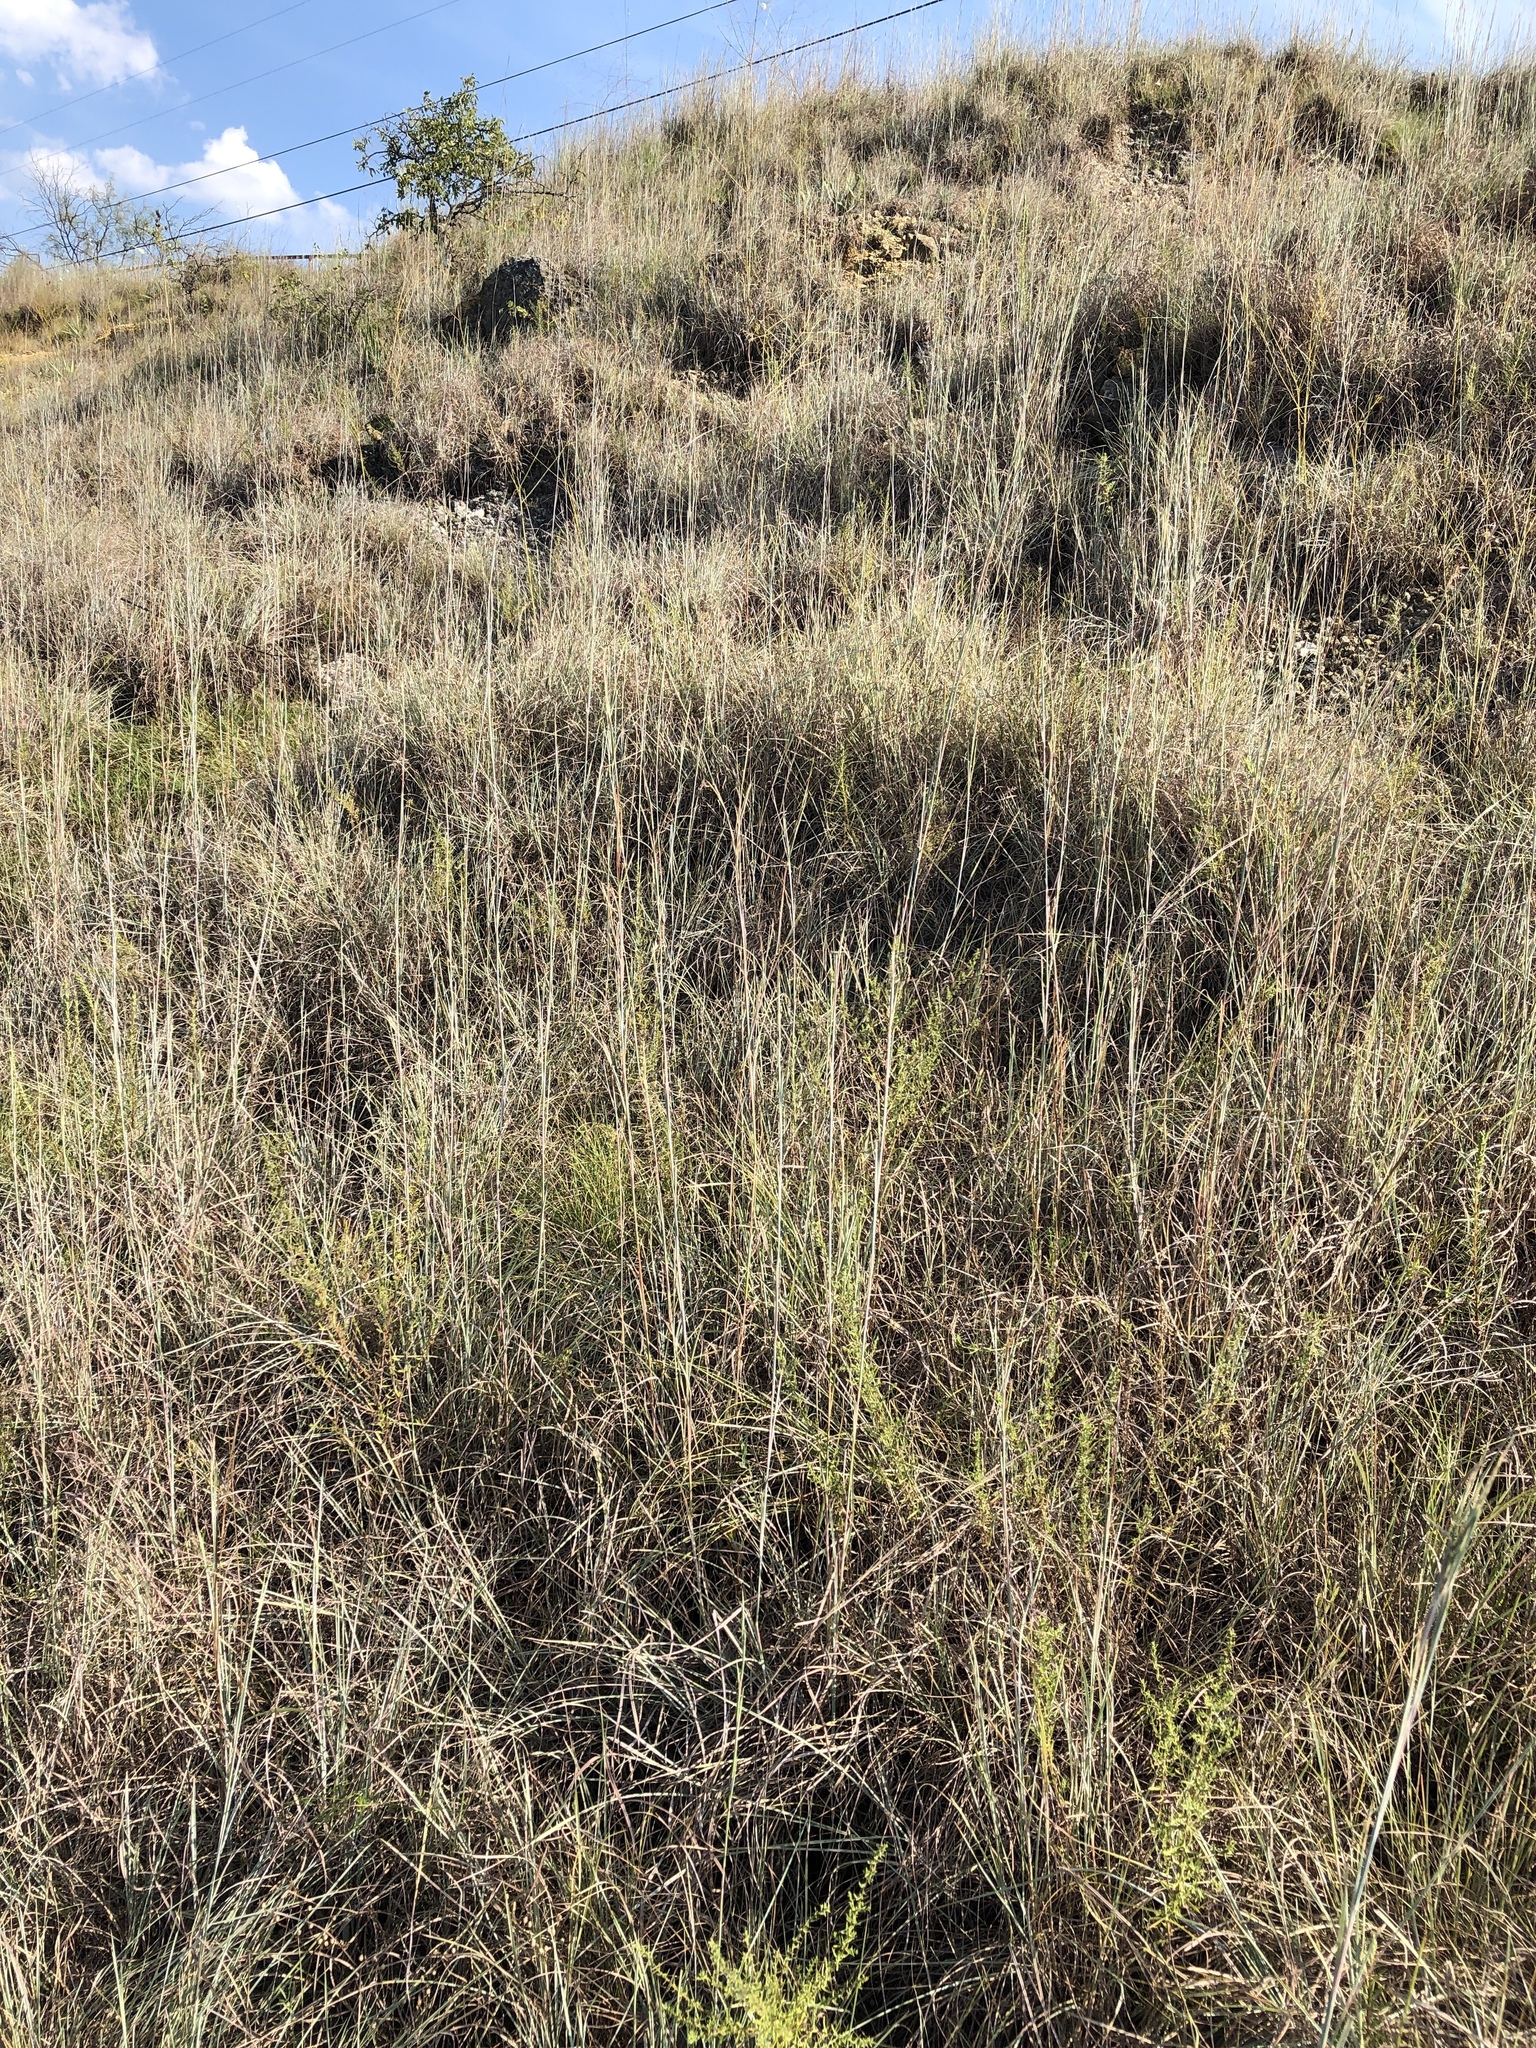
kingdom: Plantae
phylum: Tracheophyta
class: Liliopsida
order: Poales
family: Poaceae
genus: Schizachyrium
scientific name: Schizachyrium scoparium
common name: Little bluestem
